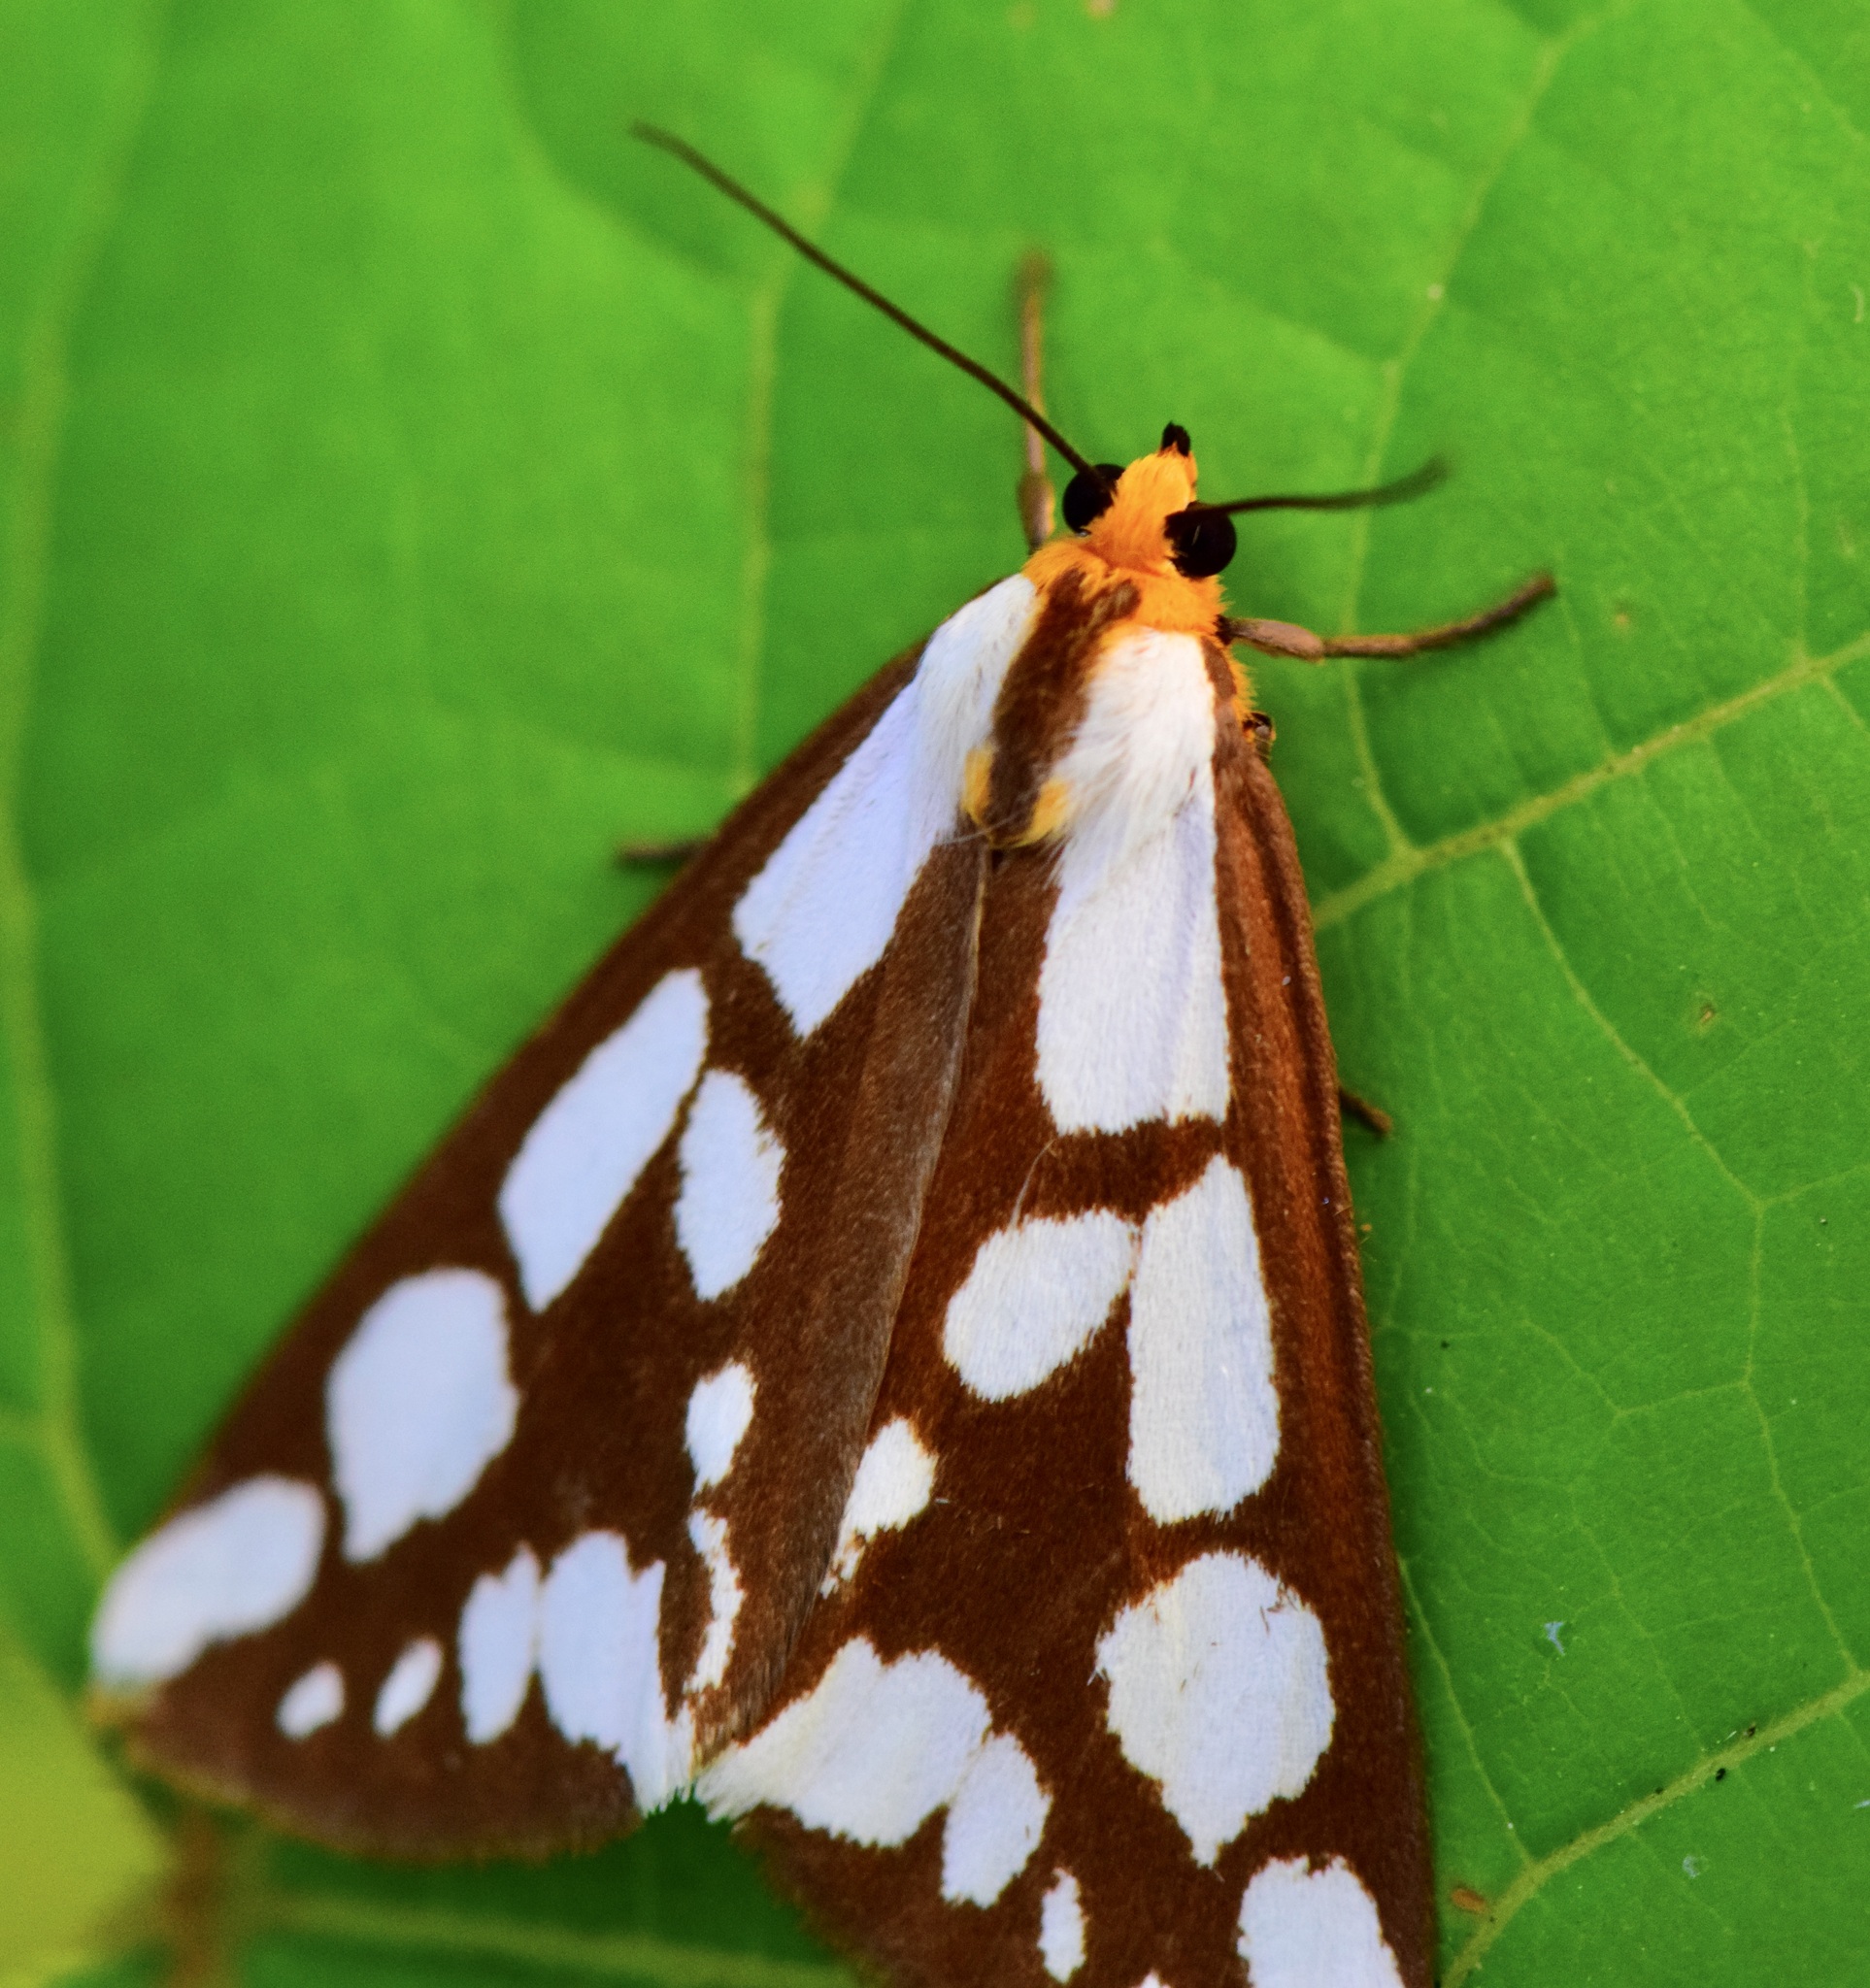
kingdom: Animalia
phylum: Arthropoda
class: Insecta
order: Lepidoptera
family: Erebidae
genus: Haploa
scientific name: Haploa confusa
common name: Confused haploa moth
